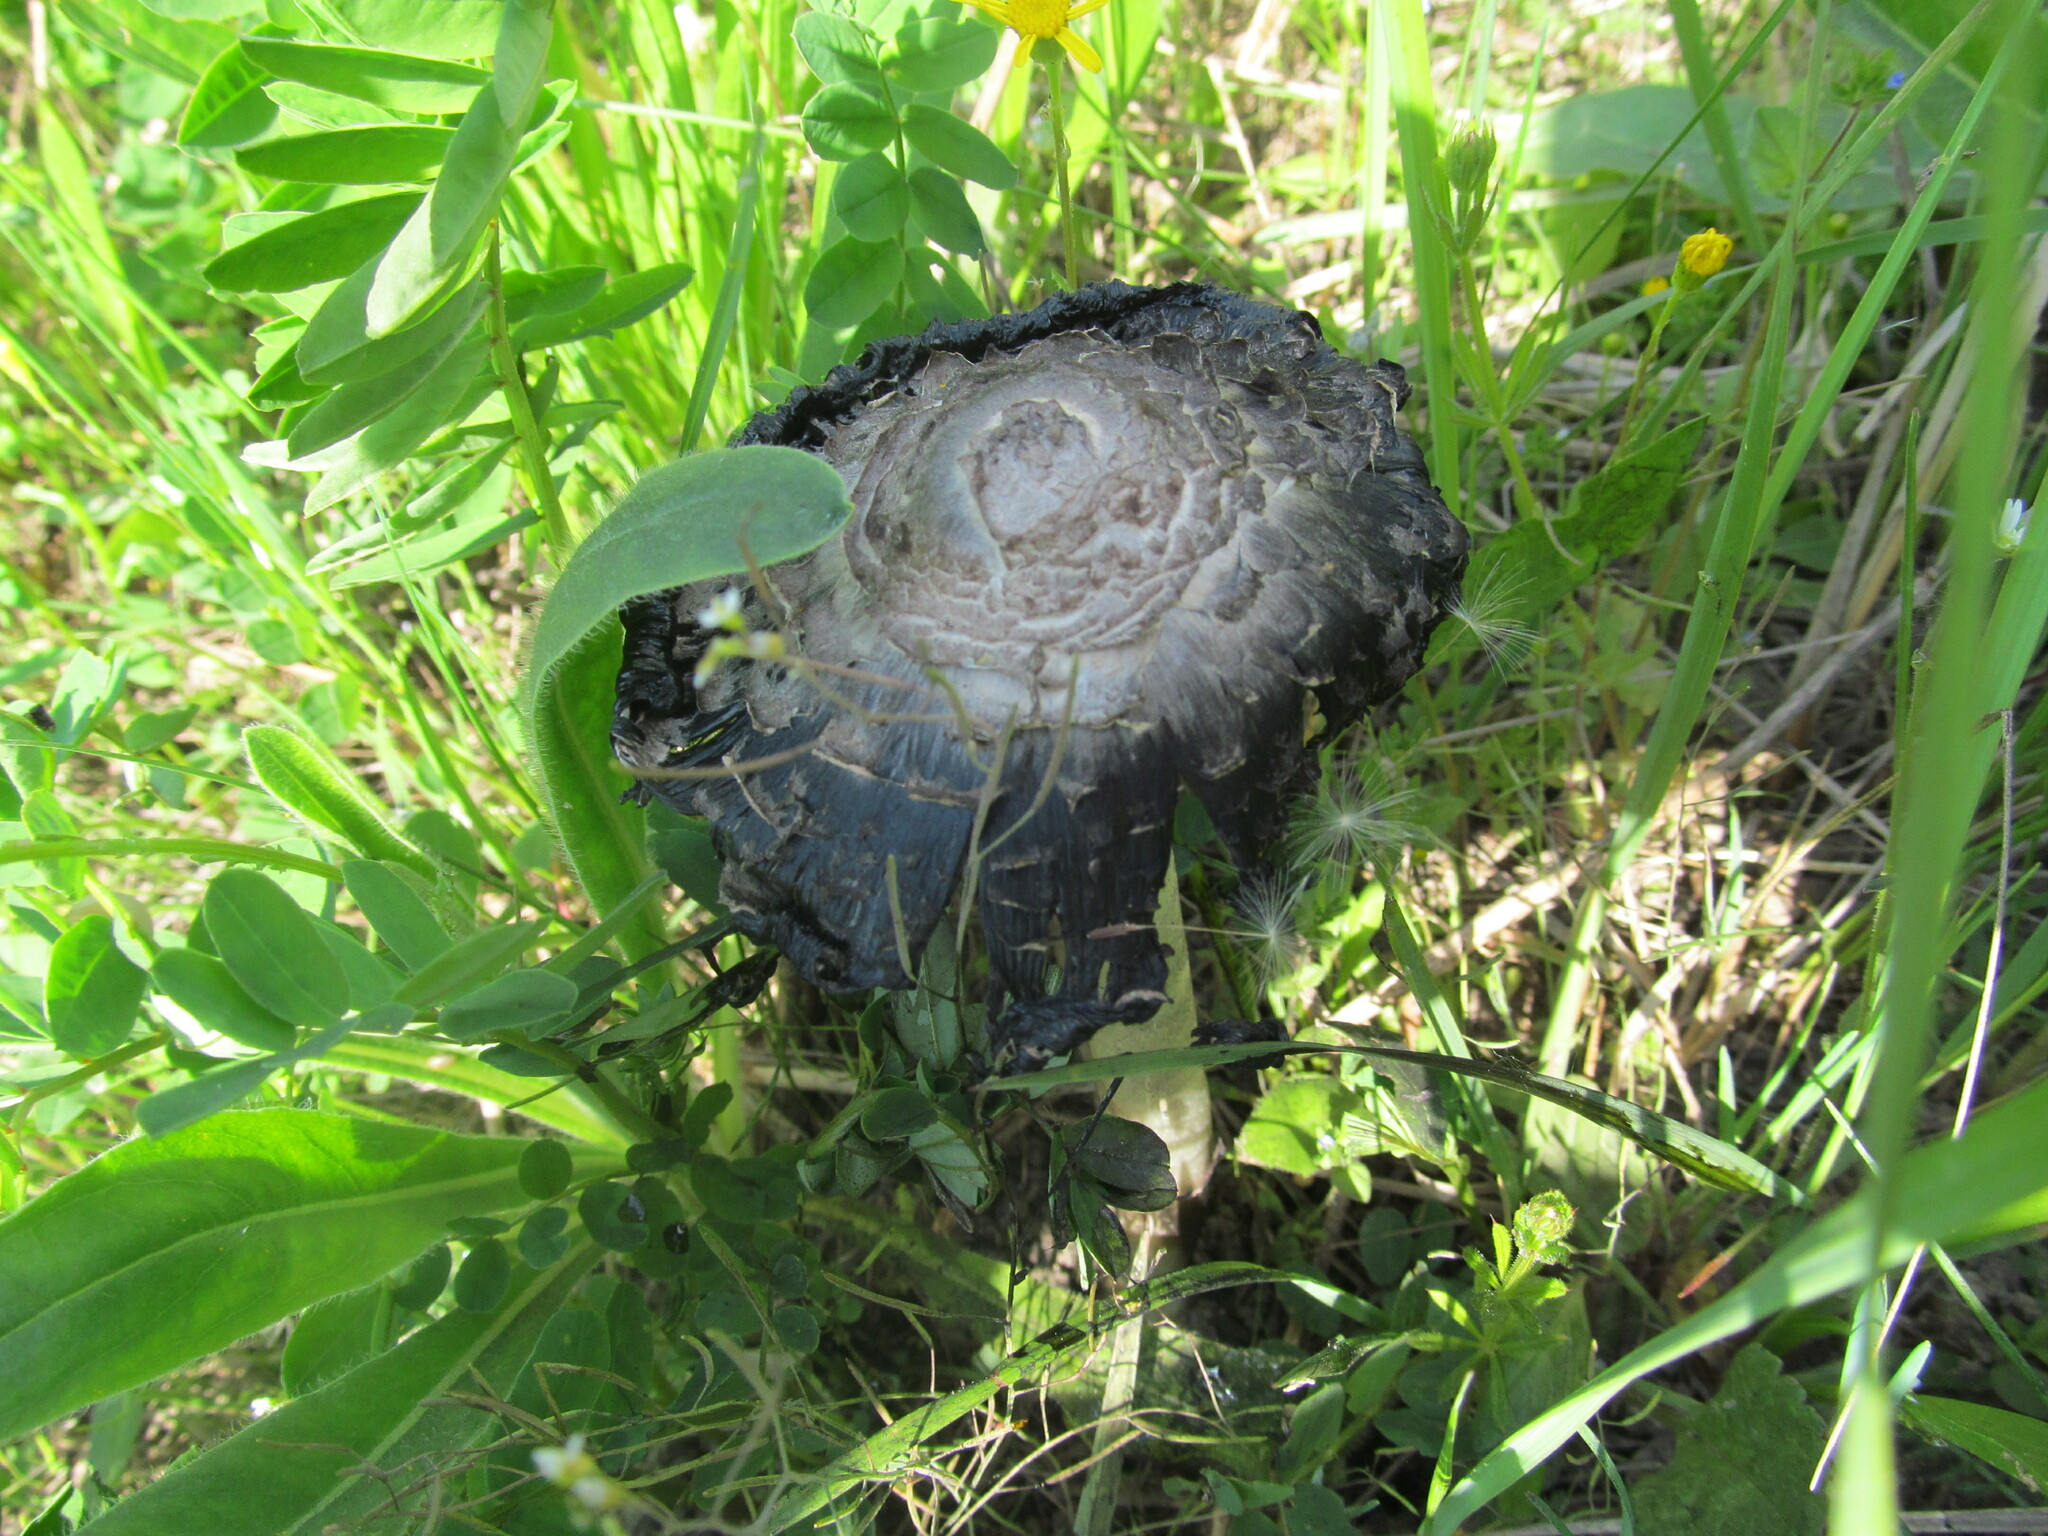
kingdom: Fungi
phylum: Basidiomycota
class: Agaricomycetes
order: Agaricales
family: Agaricaceae
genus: Coprinus
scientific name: Coprinus comatus
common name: Lawyer's wig
